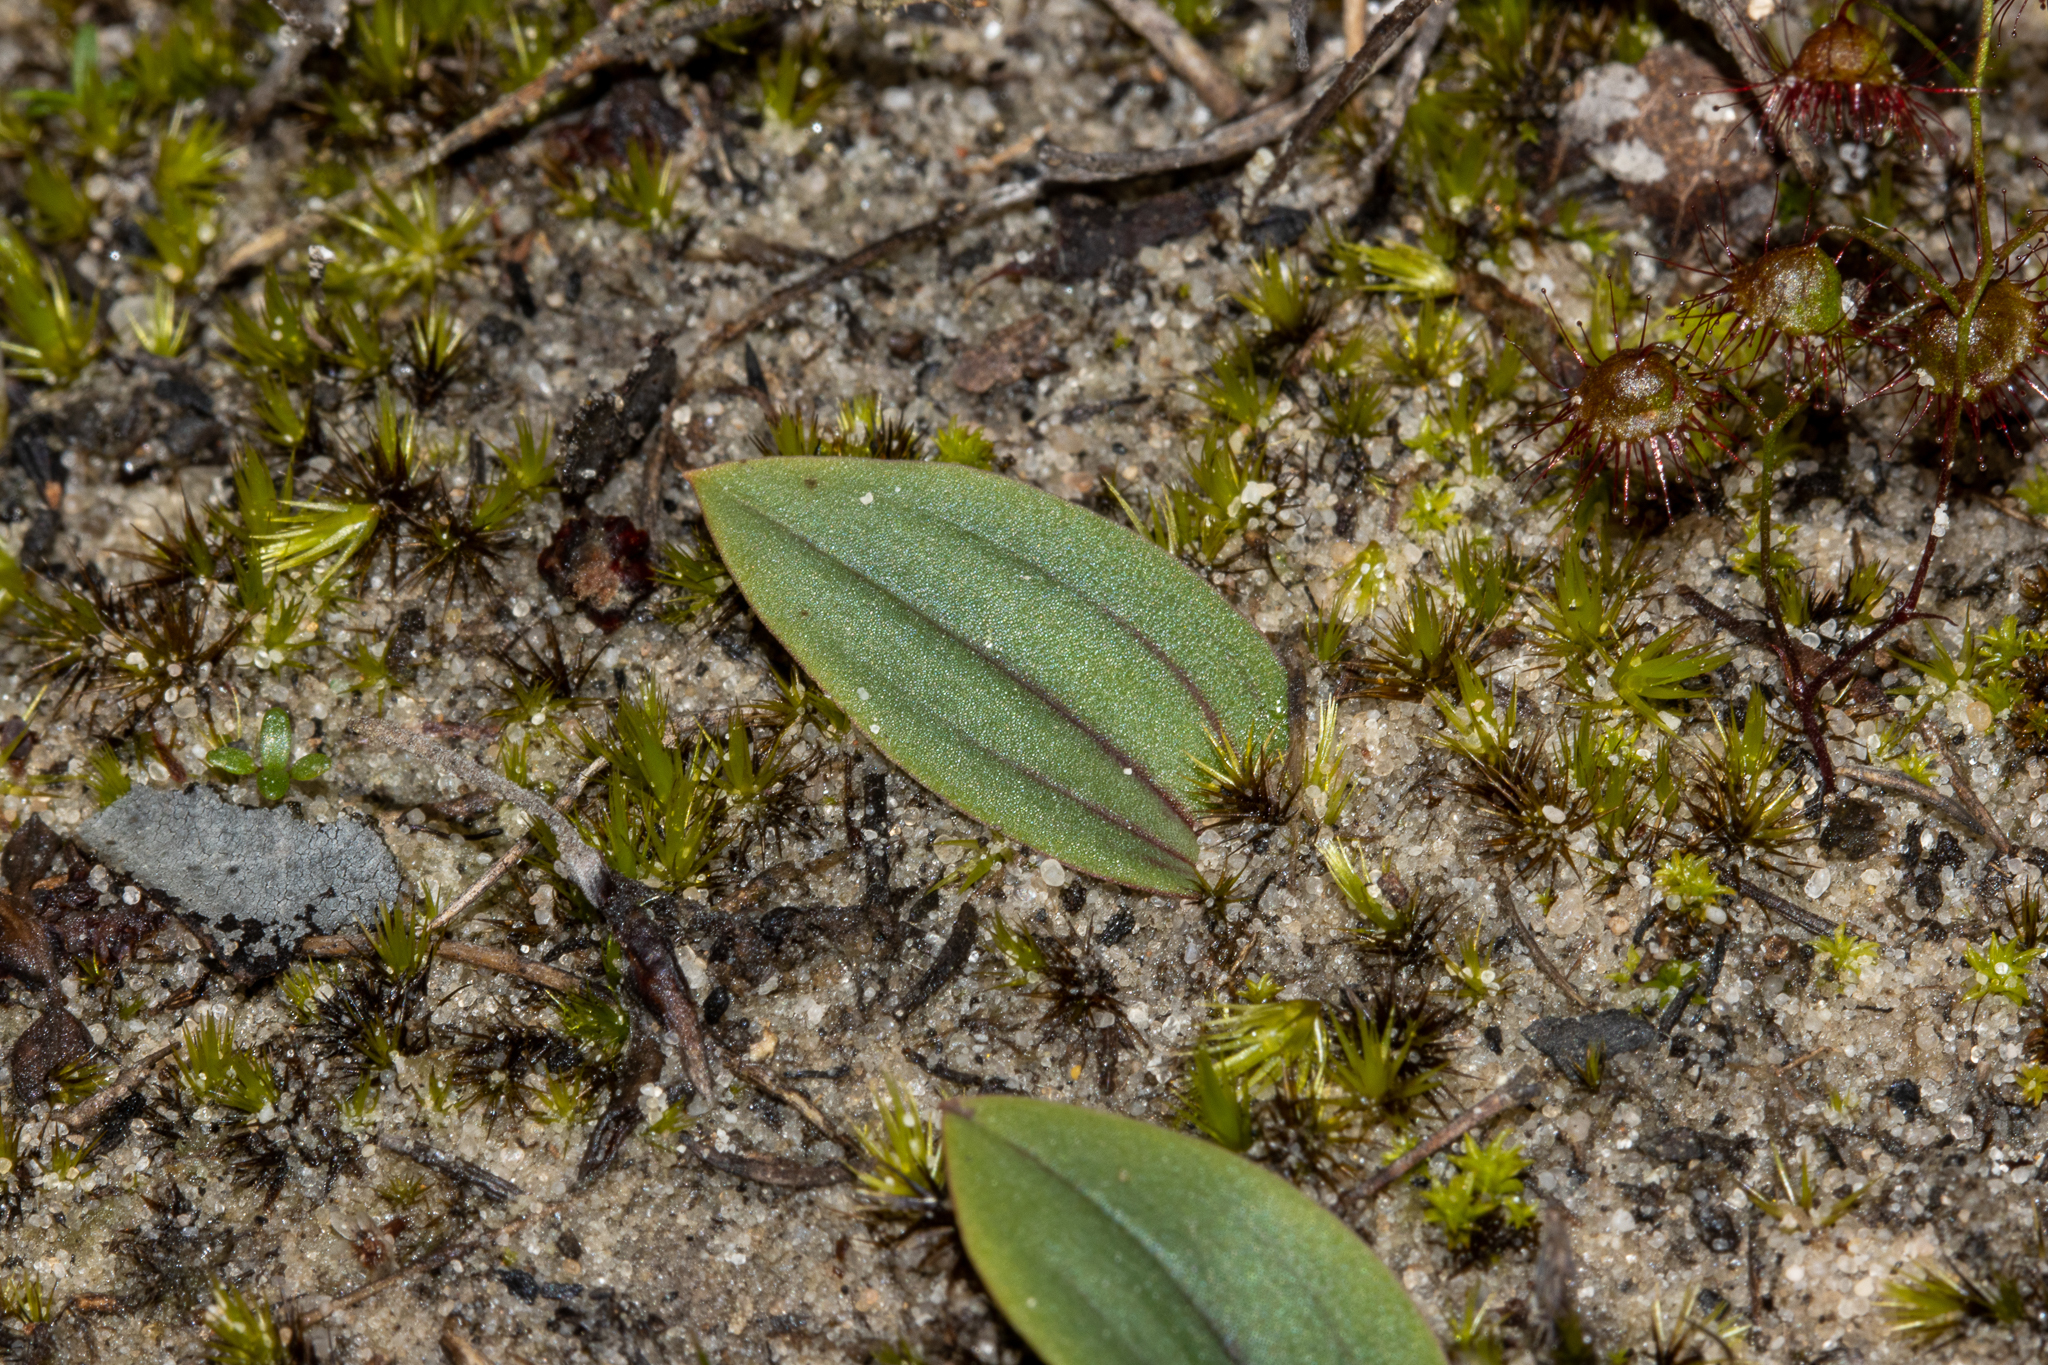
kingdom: Plantae
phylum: Tracheophyta
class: Liliopsida
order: Asparagales
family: Orchidaceae
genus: Leporella
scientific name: Leporella fimbriata
